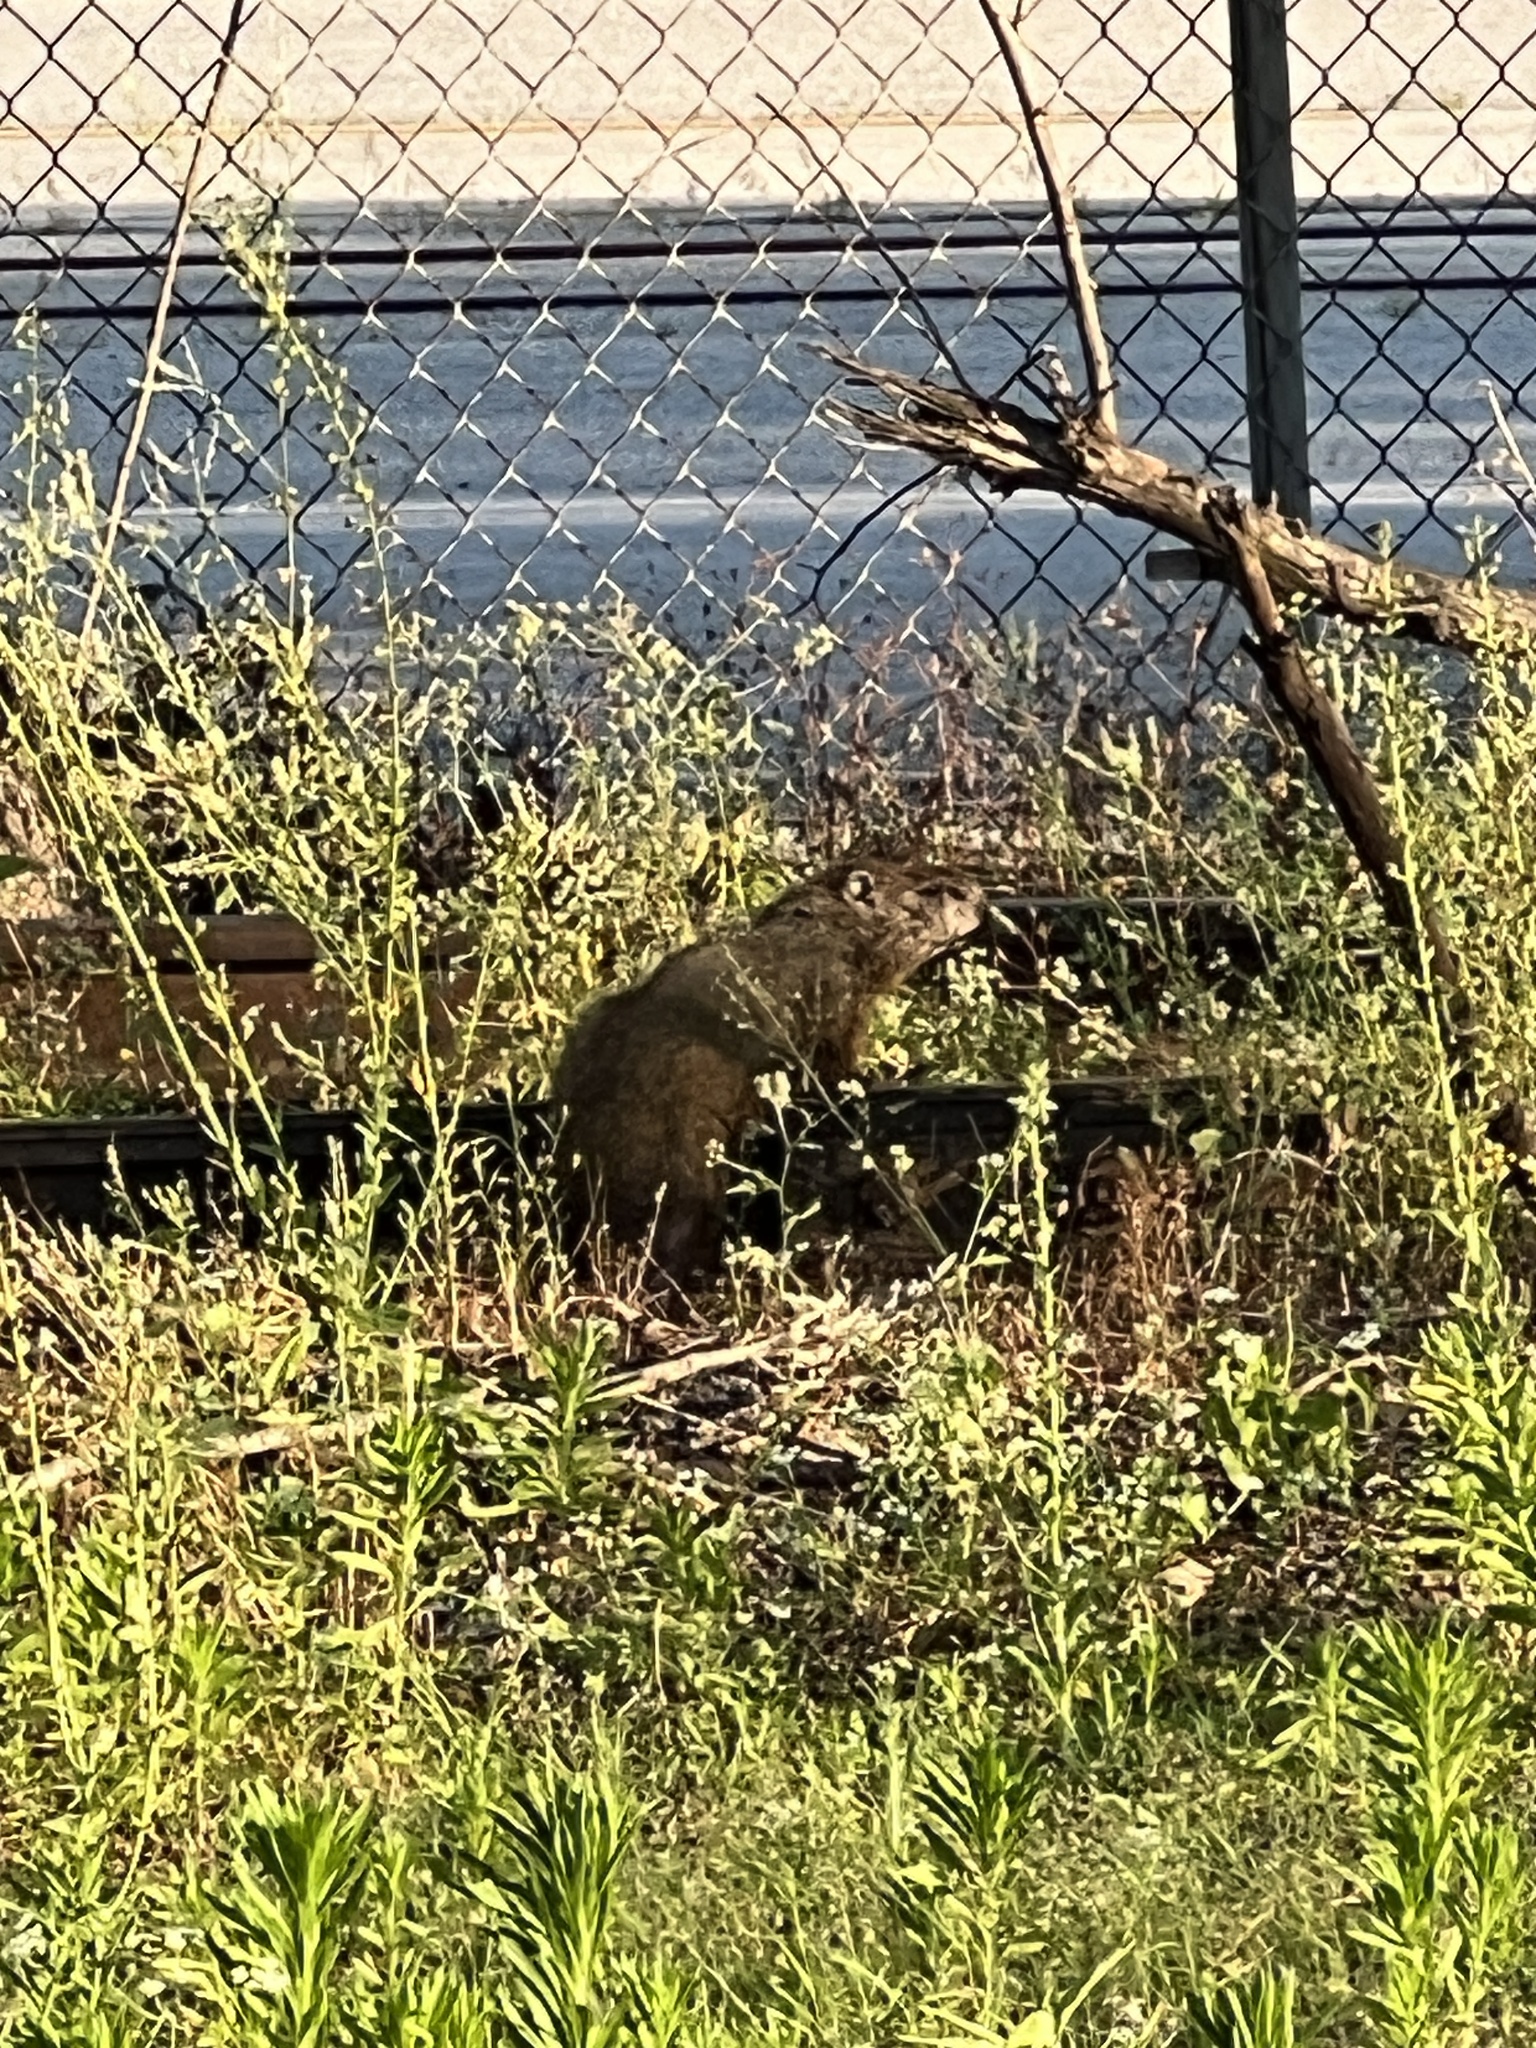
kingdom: Animalia
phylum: Chordata
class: Mammalia
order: Rodentia
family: Sciuridae
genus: Marmota
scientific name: Marmota monax
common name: Groundhog
